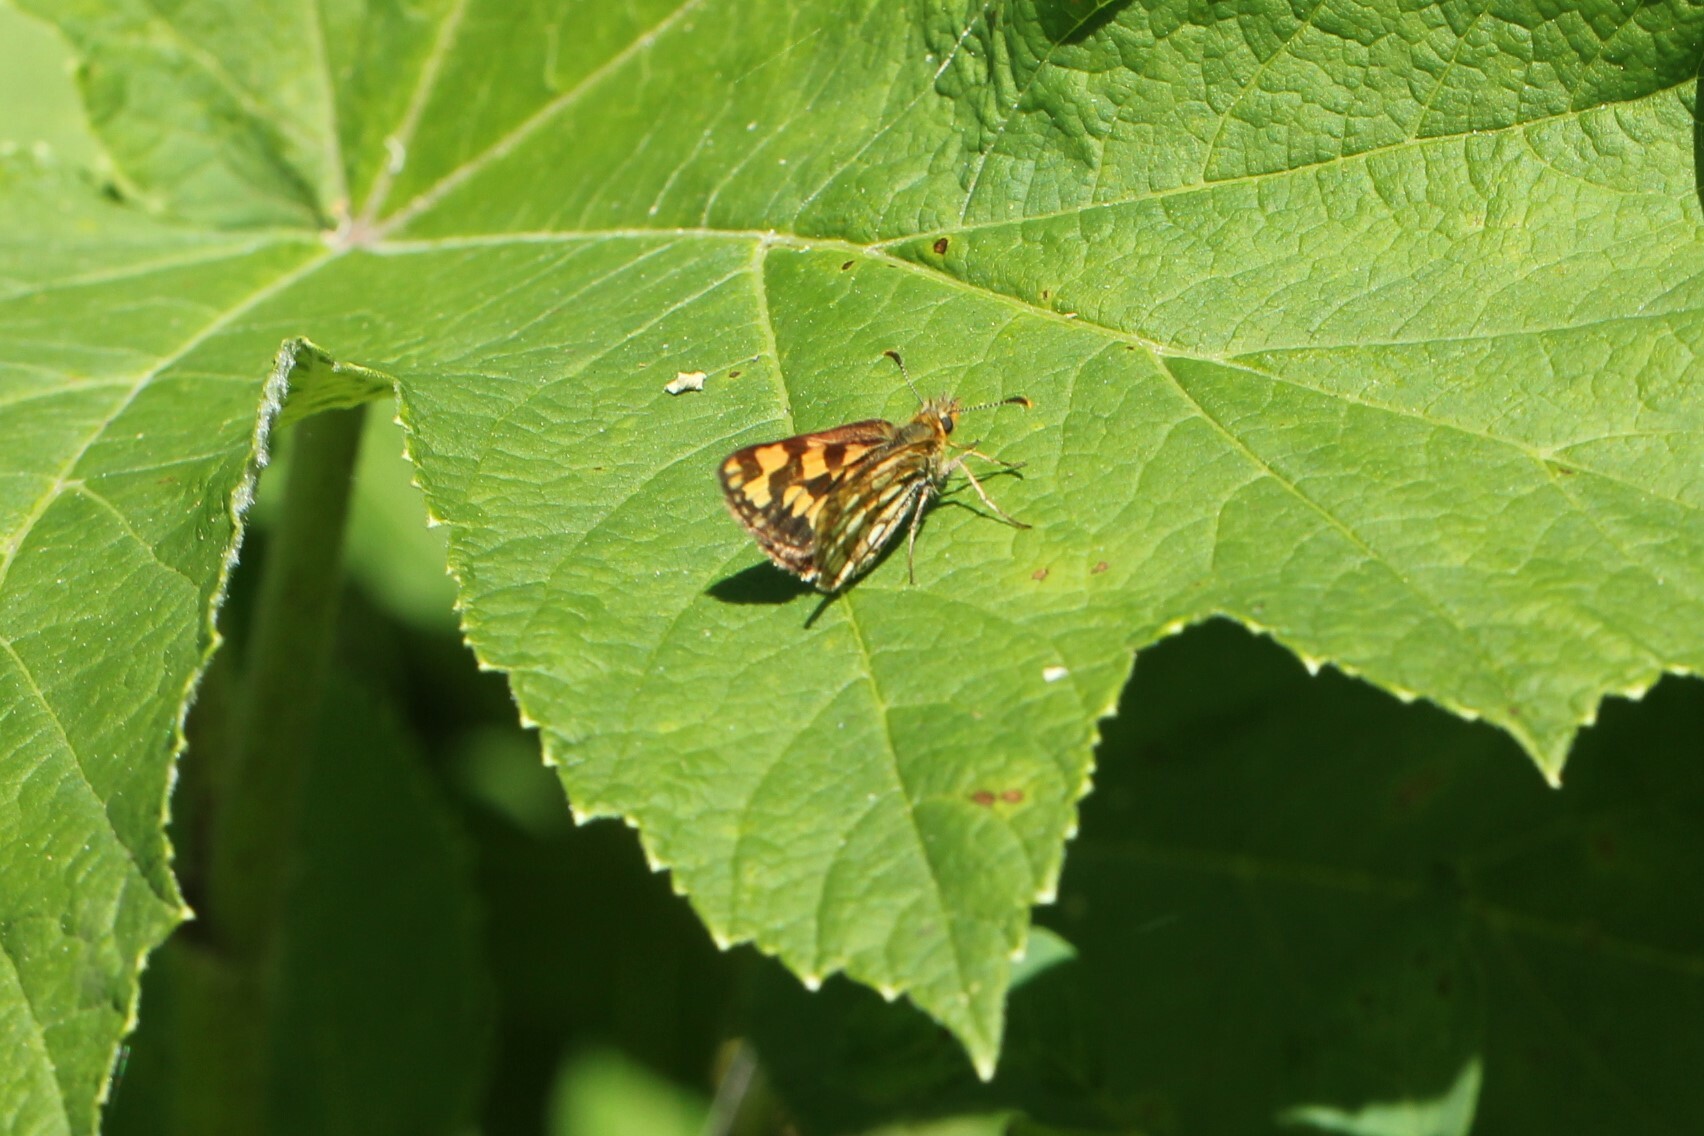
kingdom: Animalia
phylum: Arthropoda
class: Insecta
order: Lepidoptera
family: Hesperiidae
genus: Carterocephalus
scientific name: Carterocephalus skada
